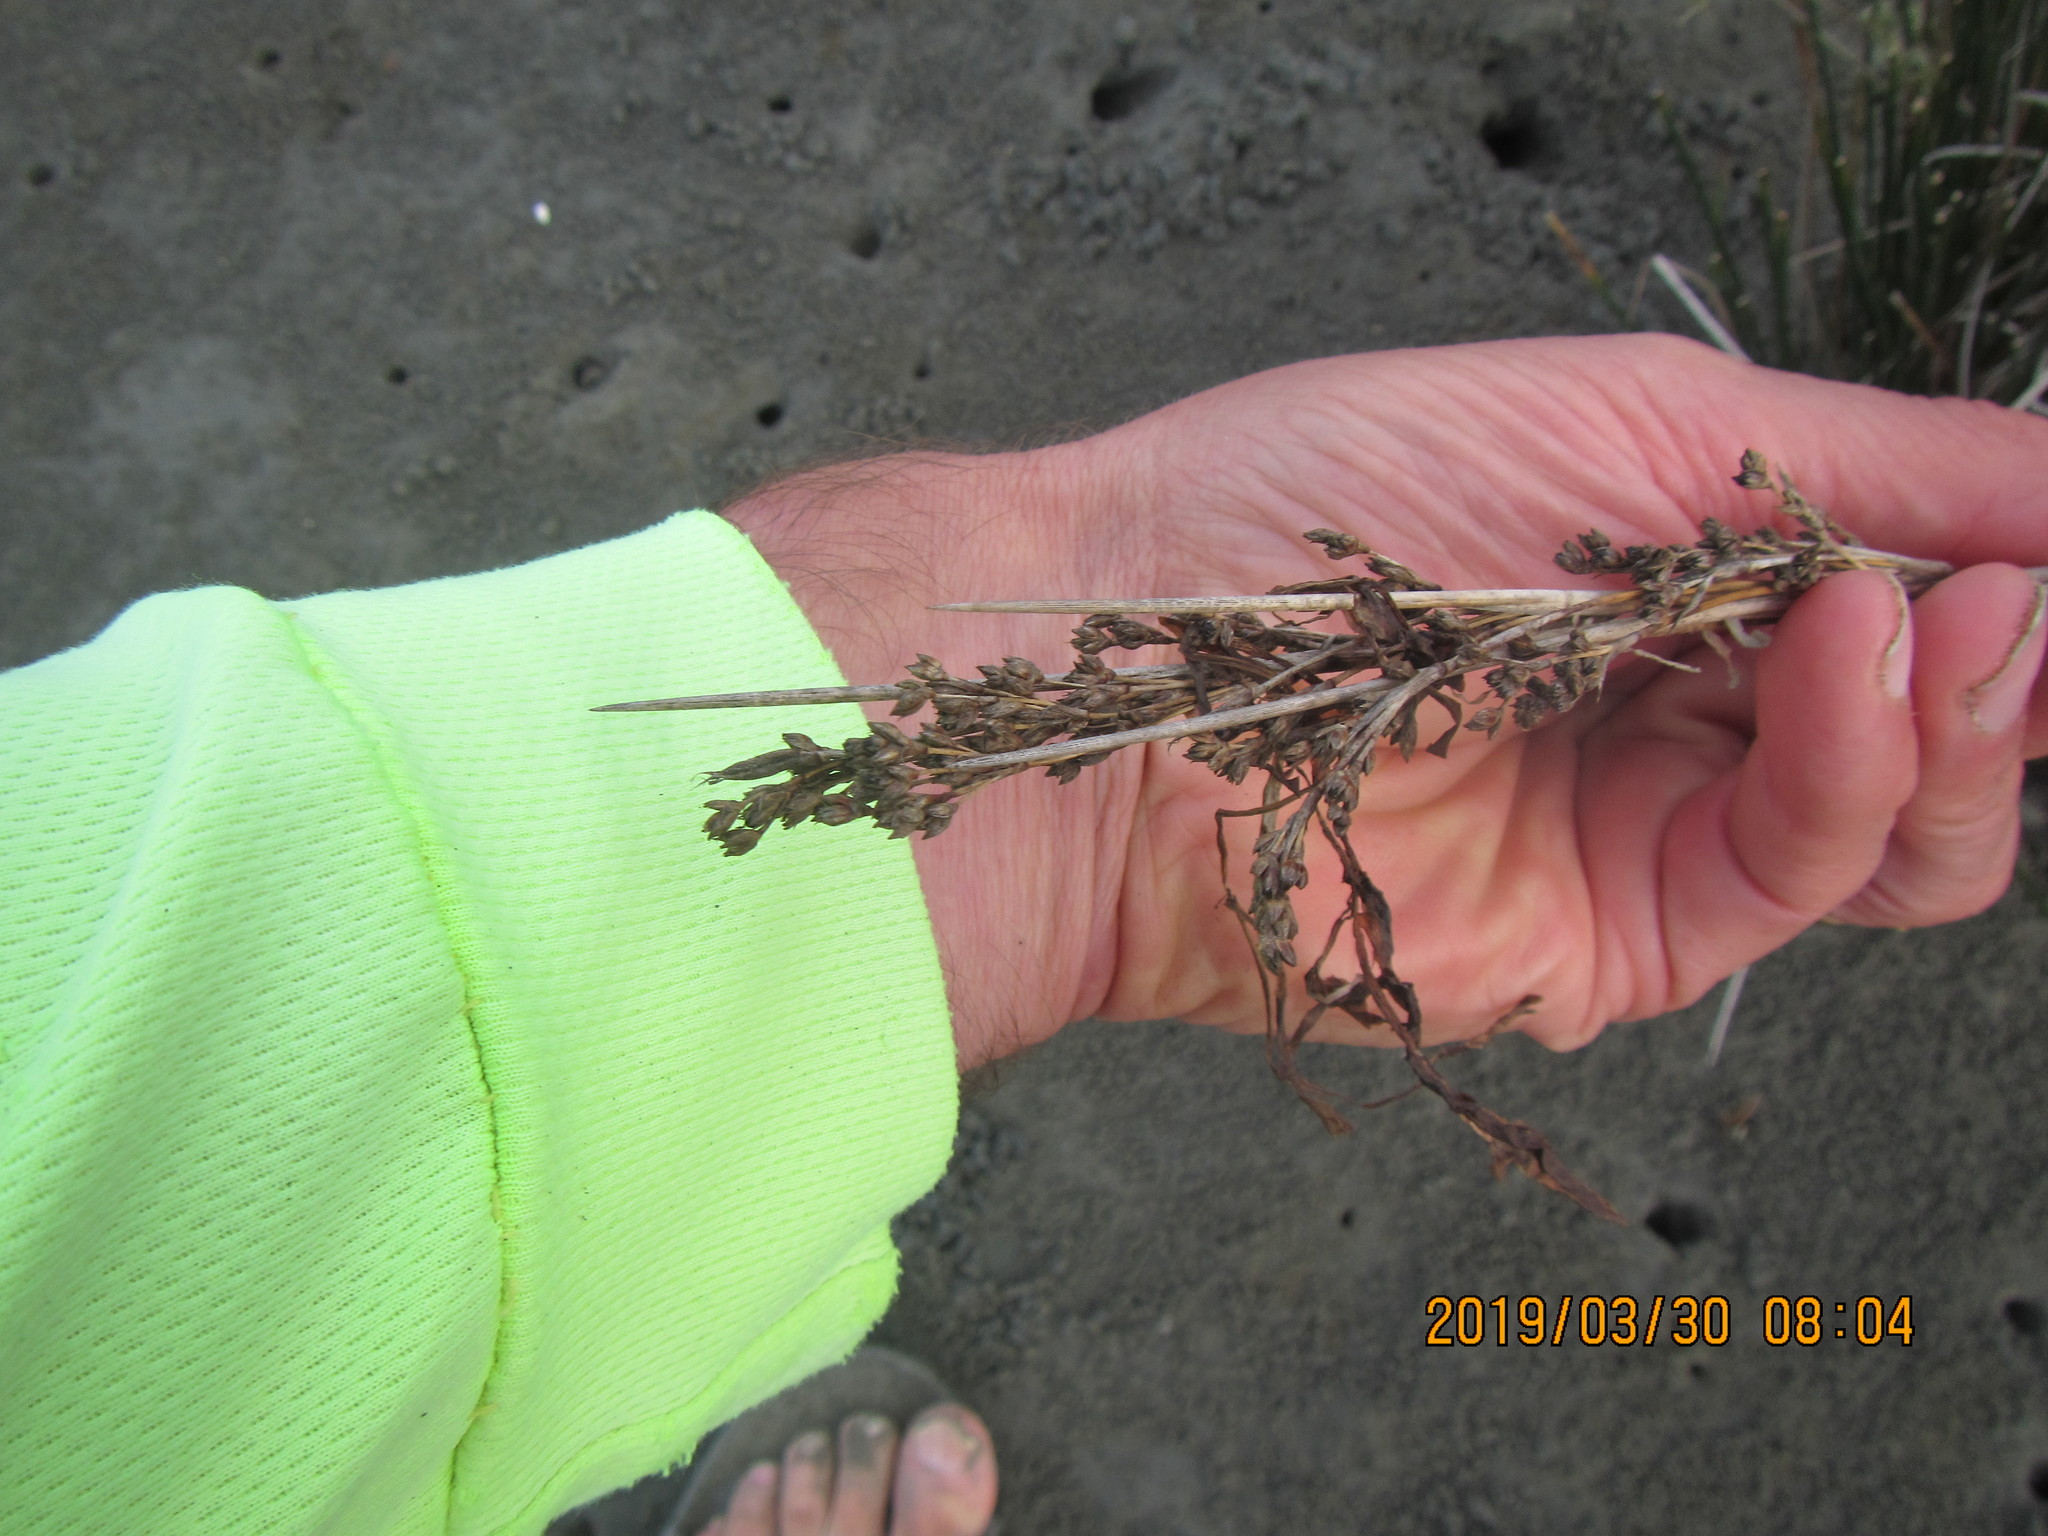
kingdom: Plantae
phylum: Tracheophyta
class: Liliopsida
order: Poales
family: Juncaceae
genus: Juncus
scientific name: Juncus kraussii
